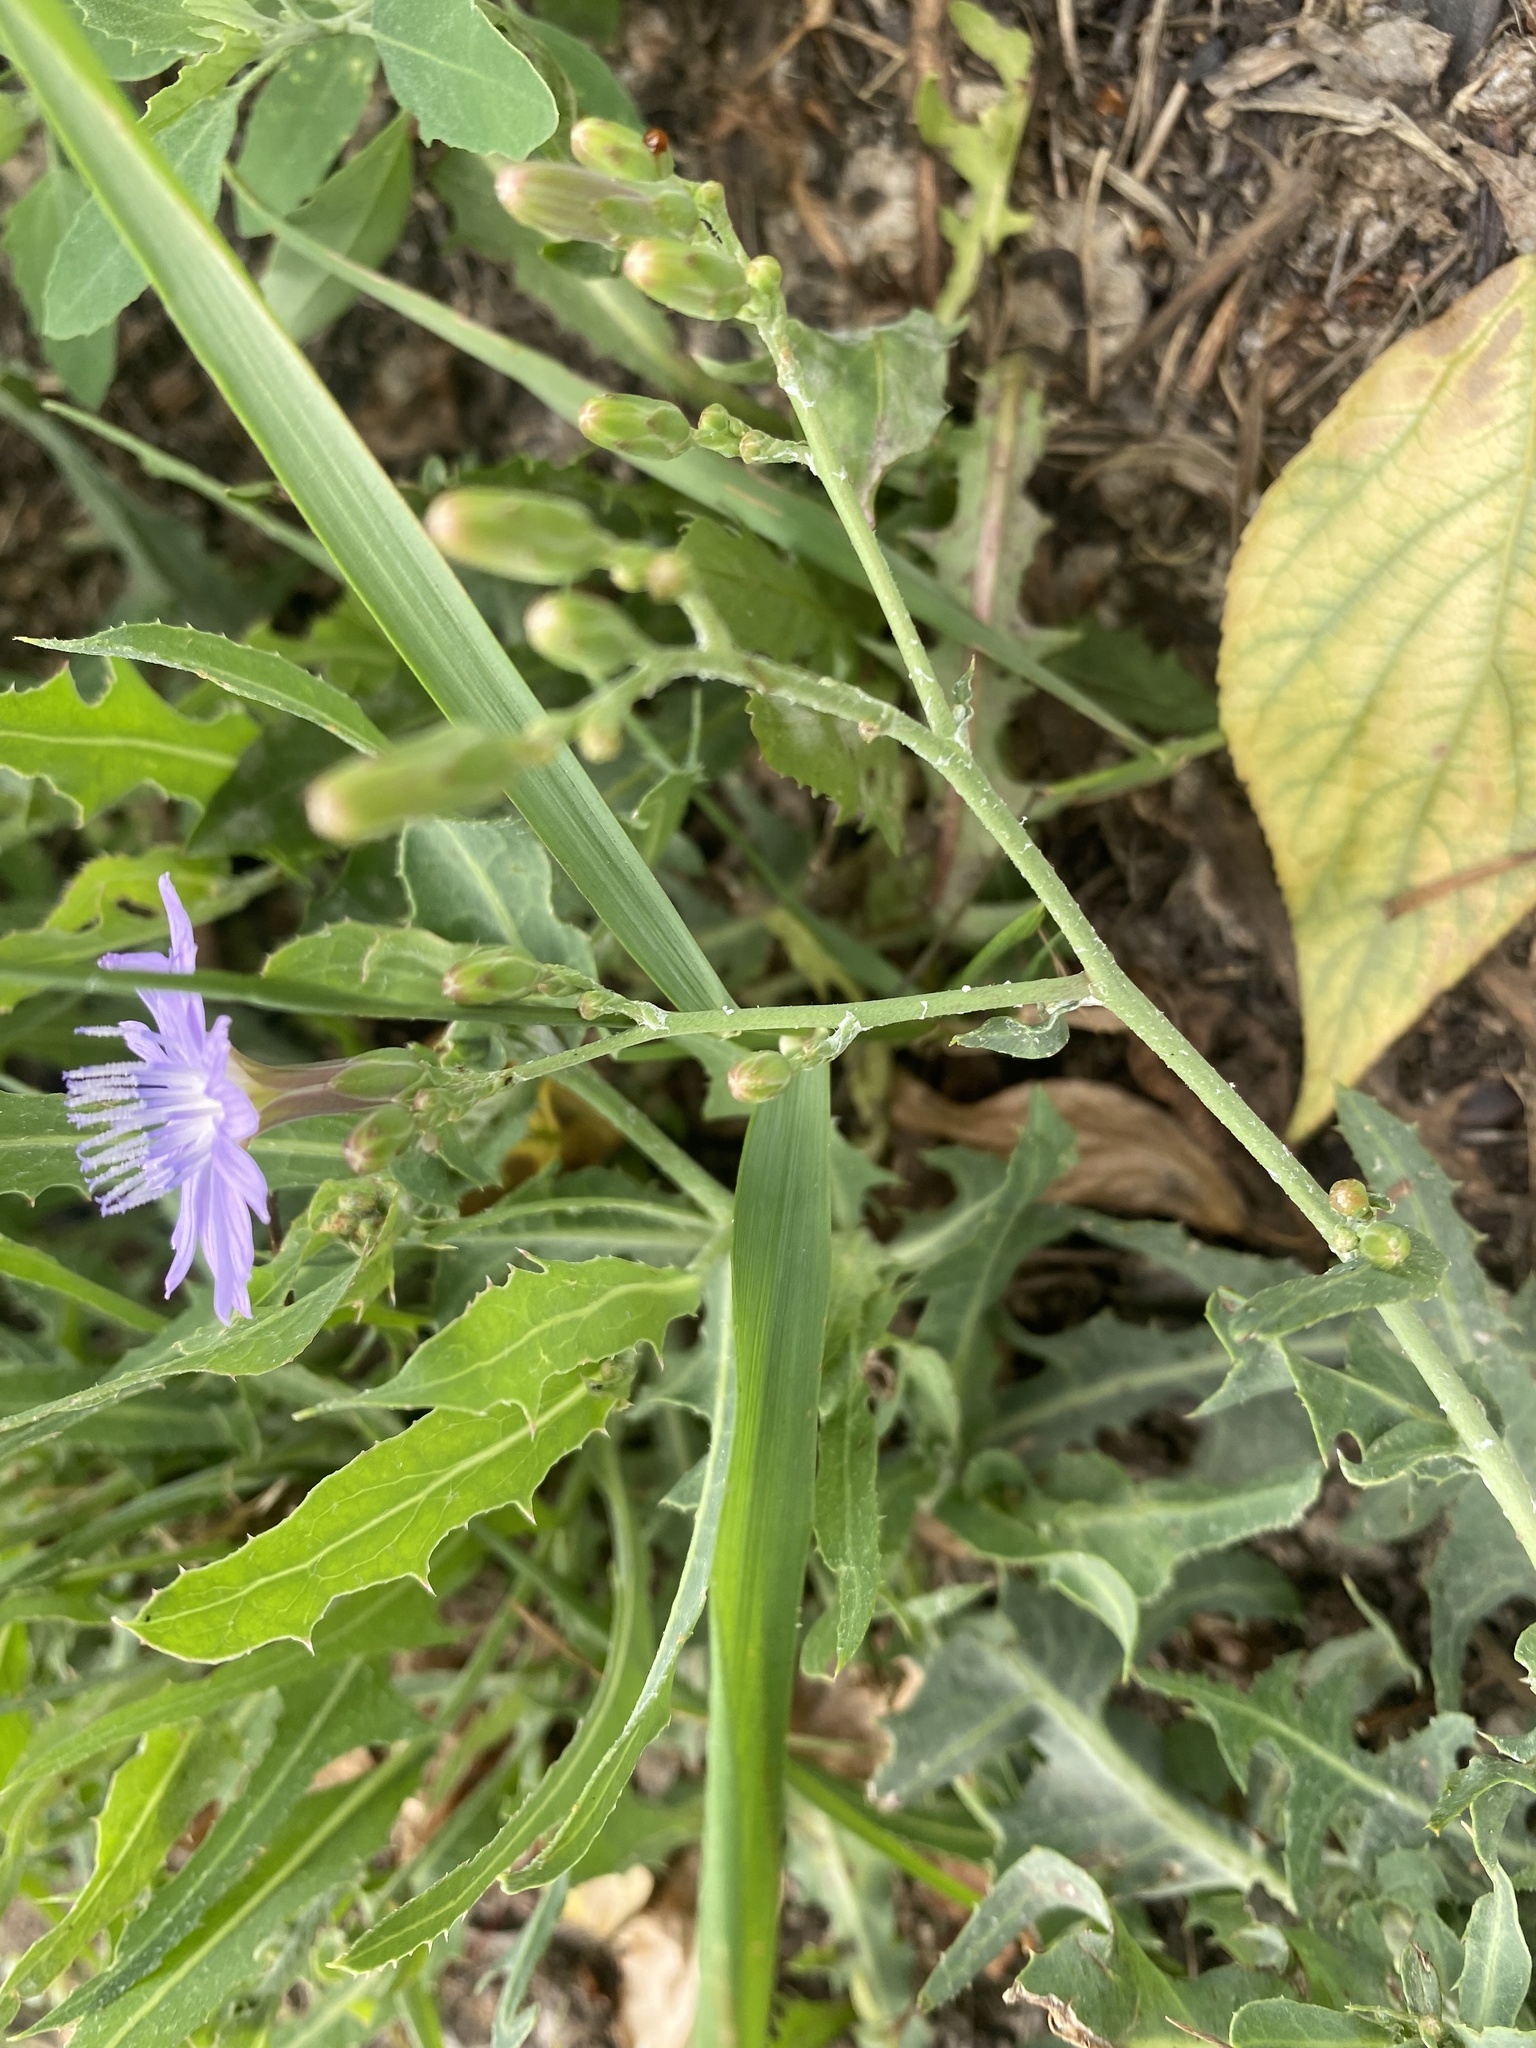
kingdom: Plantae
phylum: Tracheophyta
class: Magnoliopsida
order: Asterales
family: Asteraceae
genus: Lactuca
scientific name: Lactuca tatarica
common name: Blue lettuce
